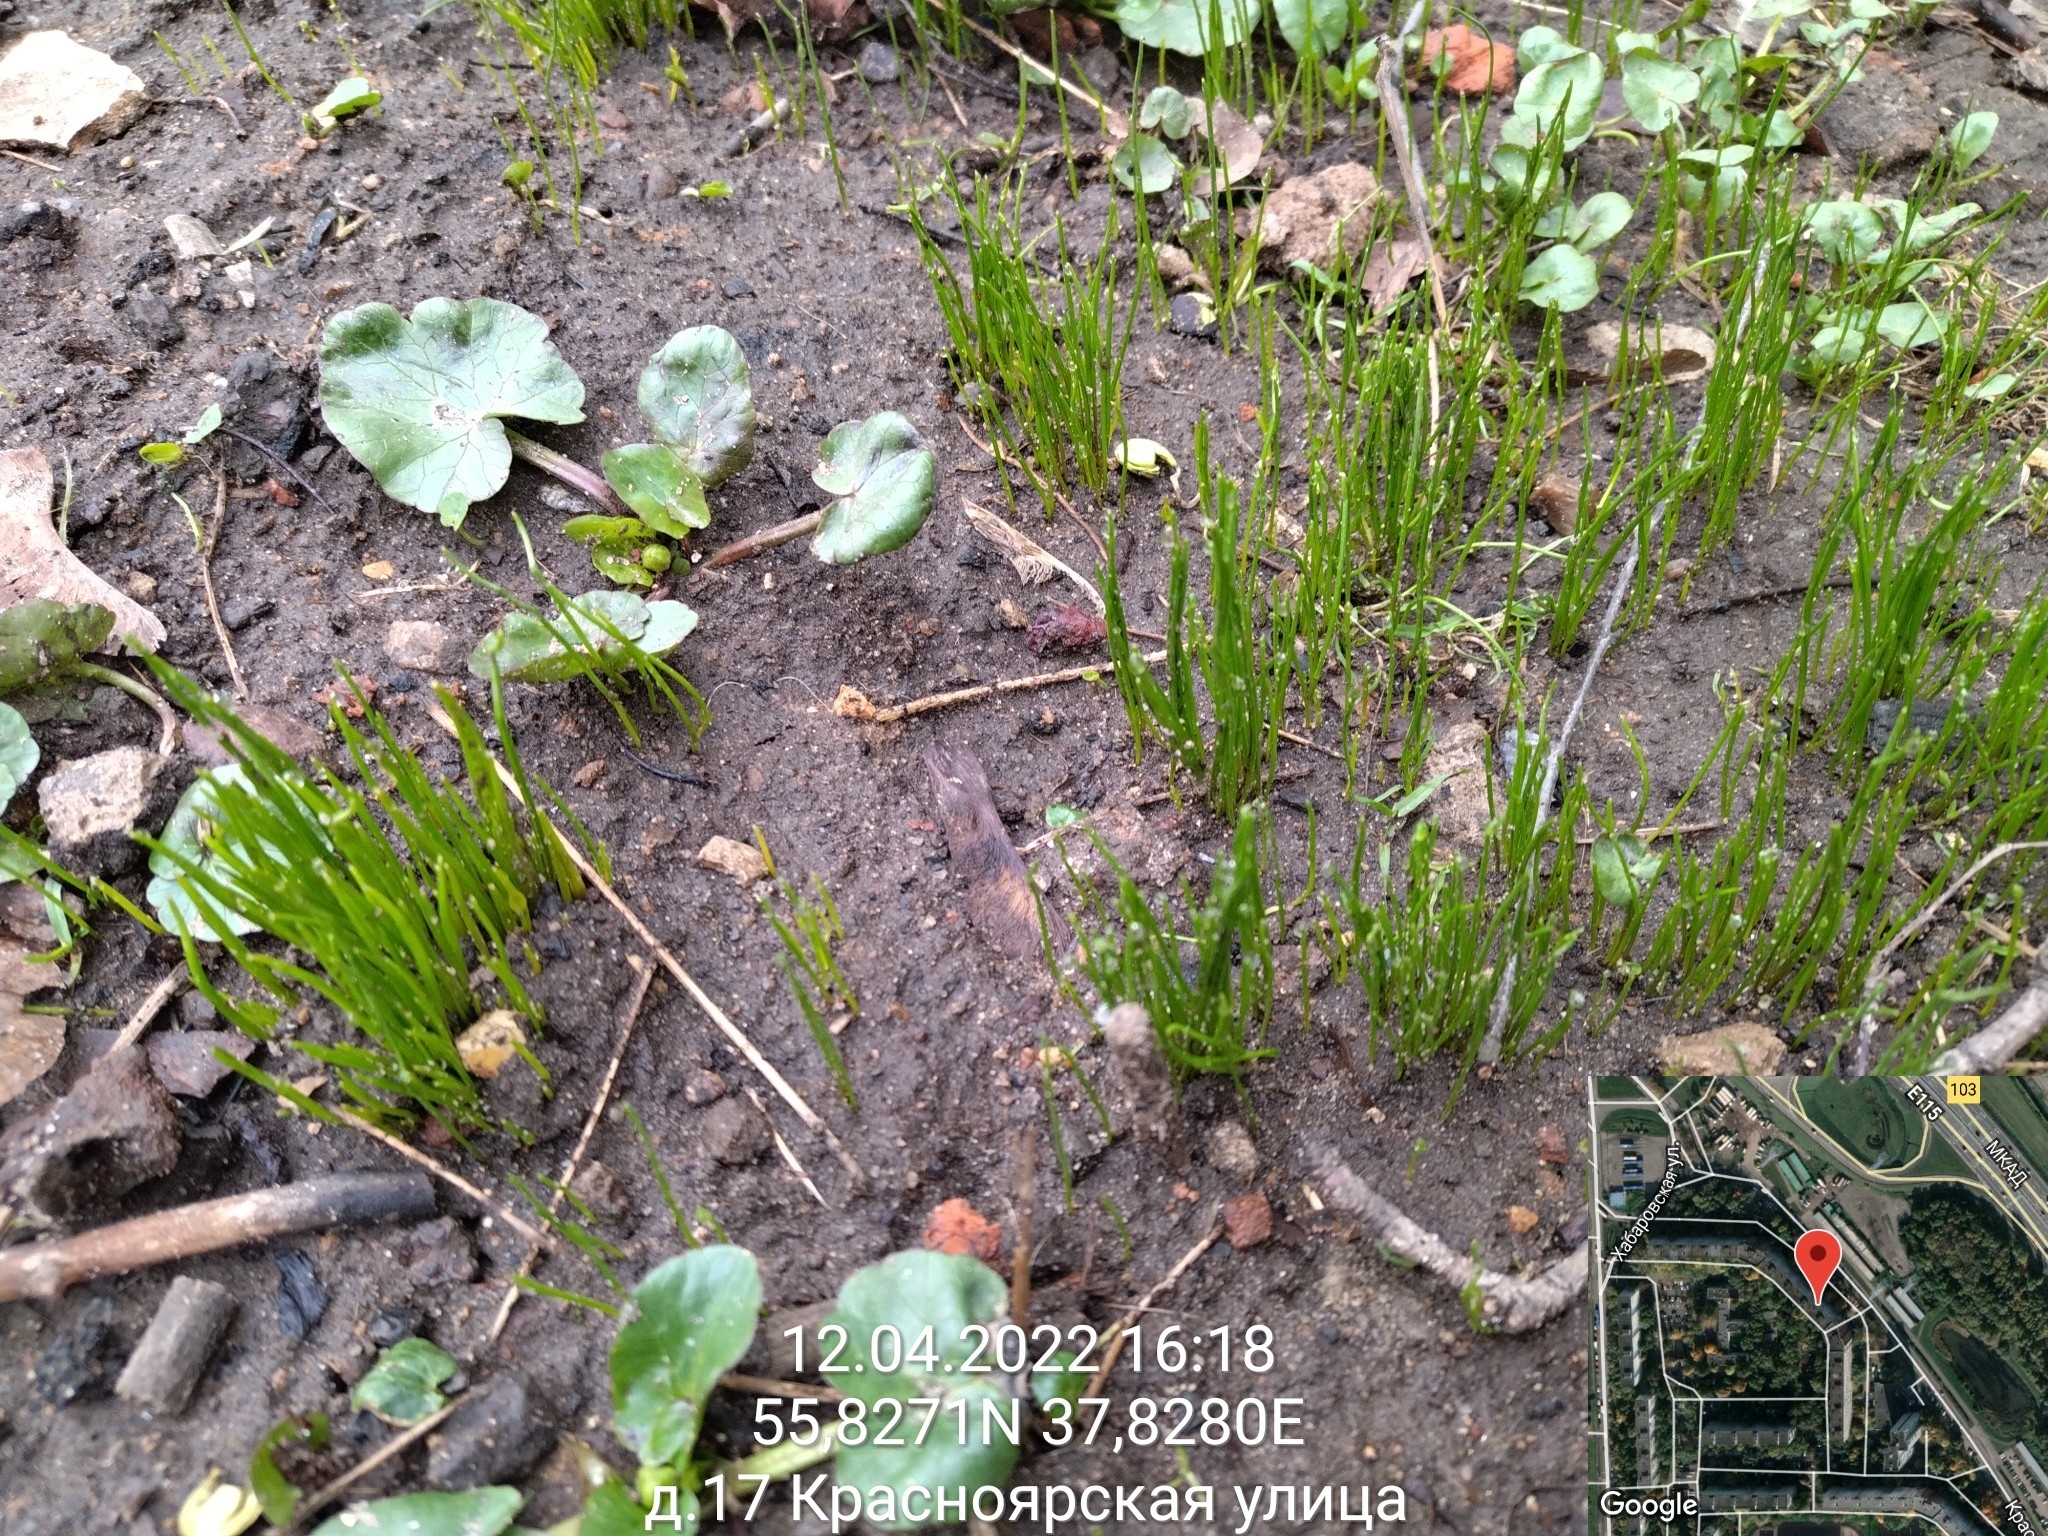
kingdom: Plantae
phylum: Tracheophyta
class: Liliopsida
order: Liliales
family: Liliaceae
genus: Gagea
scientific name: Gagea minima
